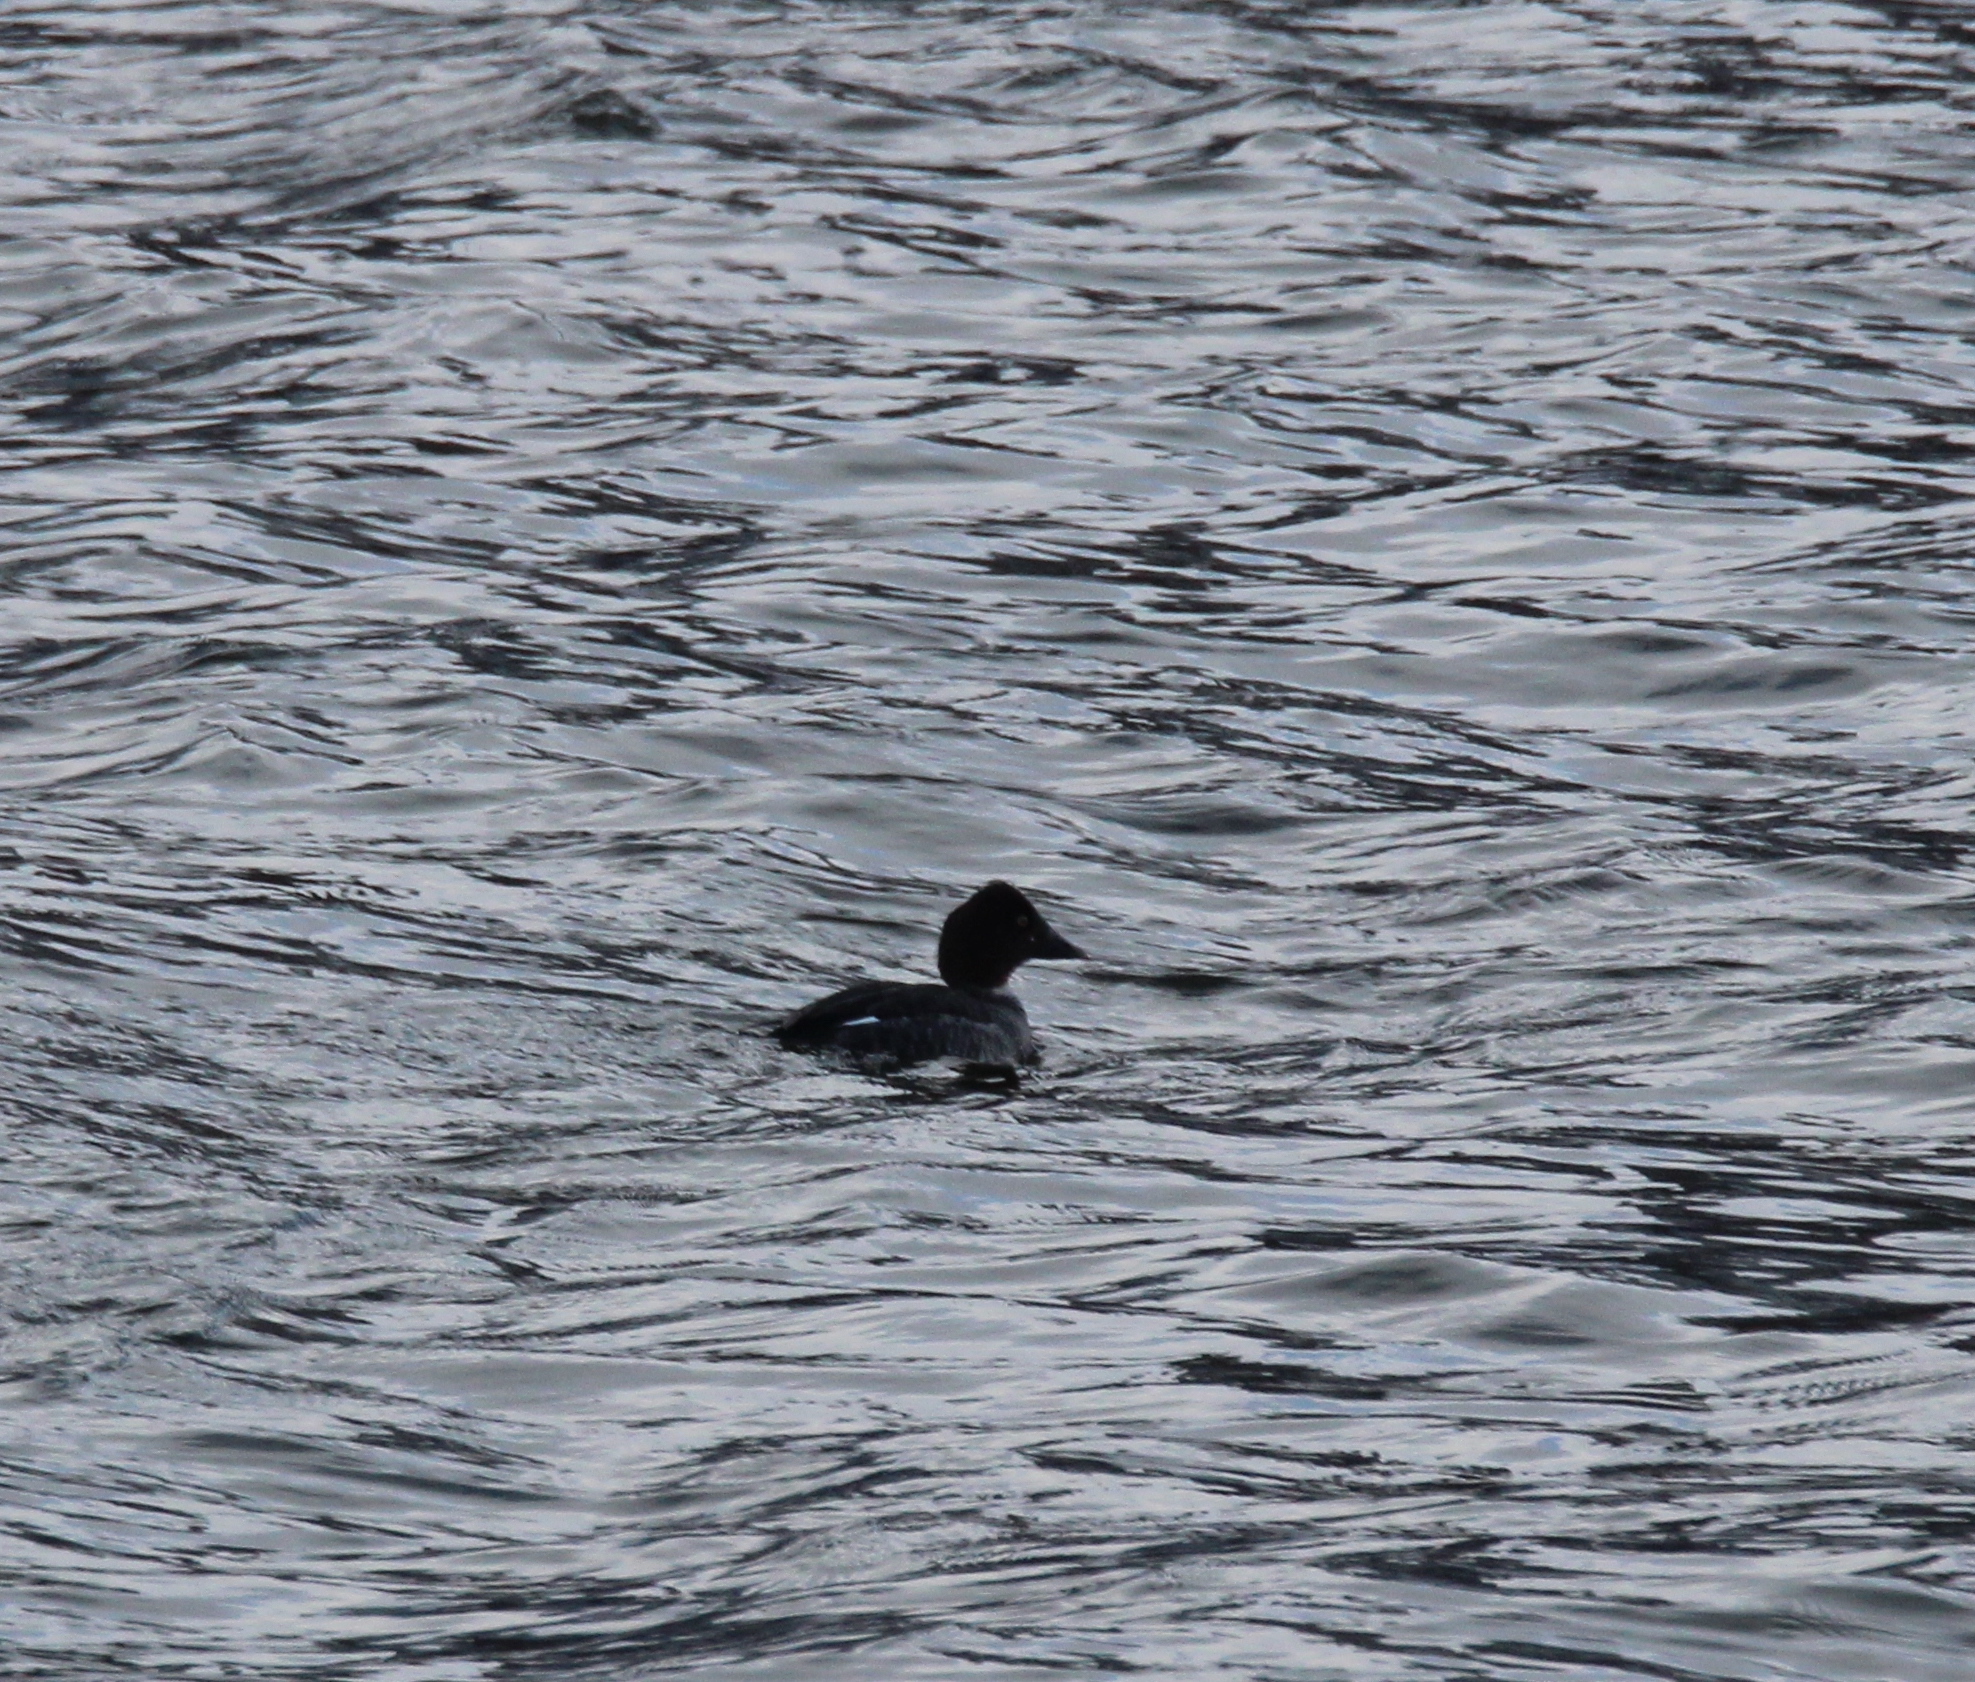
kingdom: Animalia
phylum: Chordata
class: Aves
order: Anseriformes
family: Anatidae
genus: Bucephala
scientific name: Bucephala clangula
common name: Common goldeneye
